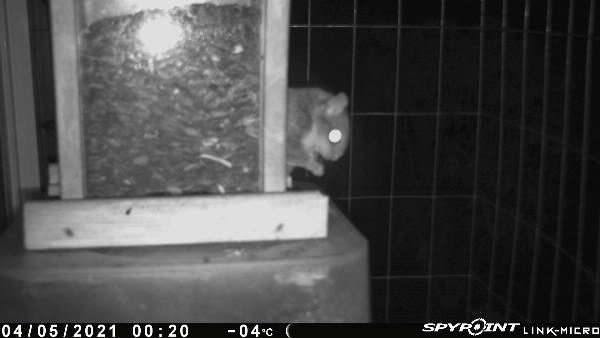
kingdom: Animalia
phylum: Chordata
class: Mammalia
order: Rodentia
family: Sciuridae
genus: Glaucomys
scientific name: Glaucomys sabrinus
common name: Northern flying squirrel
